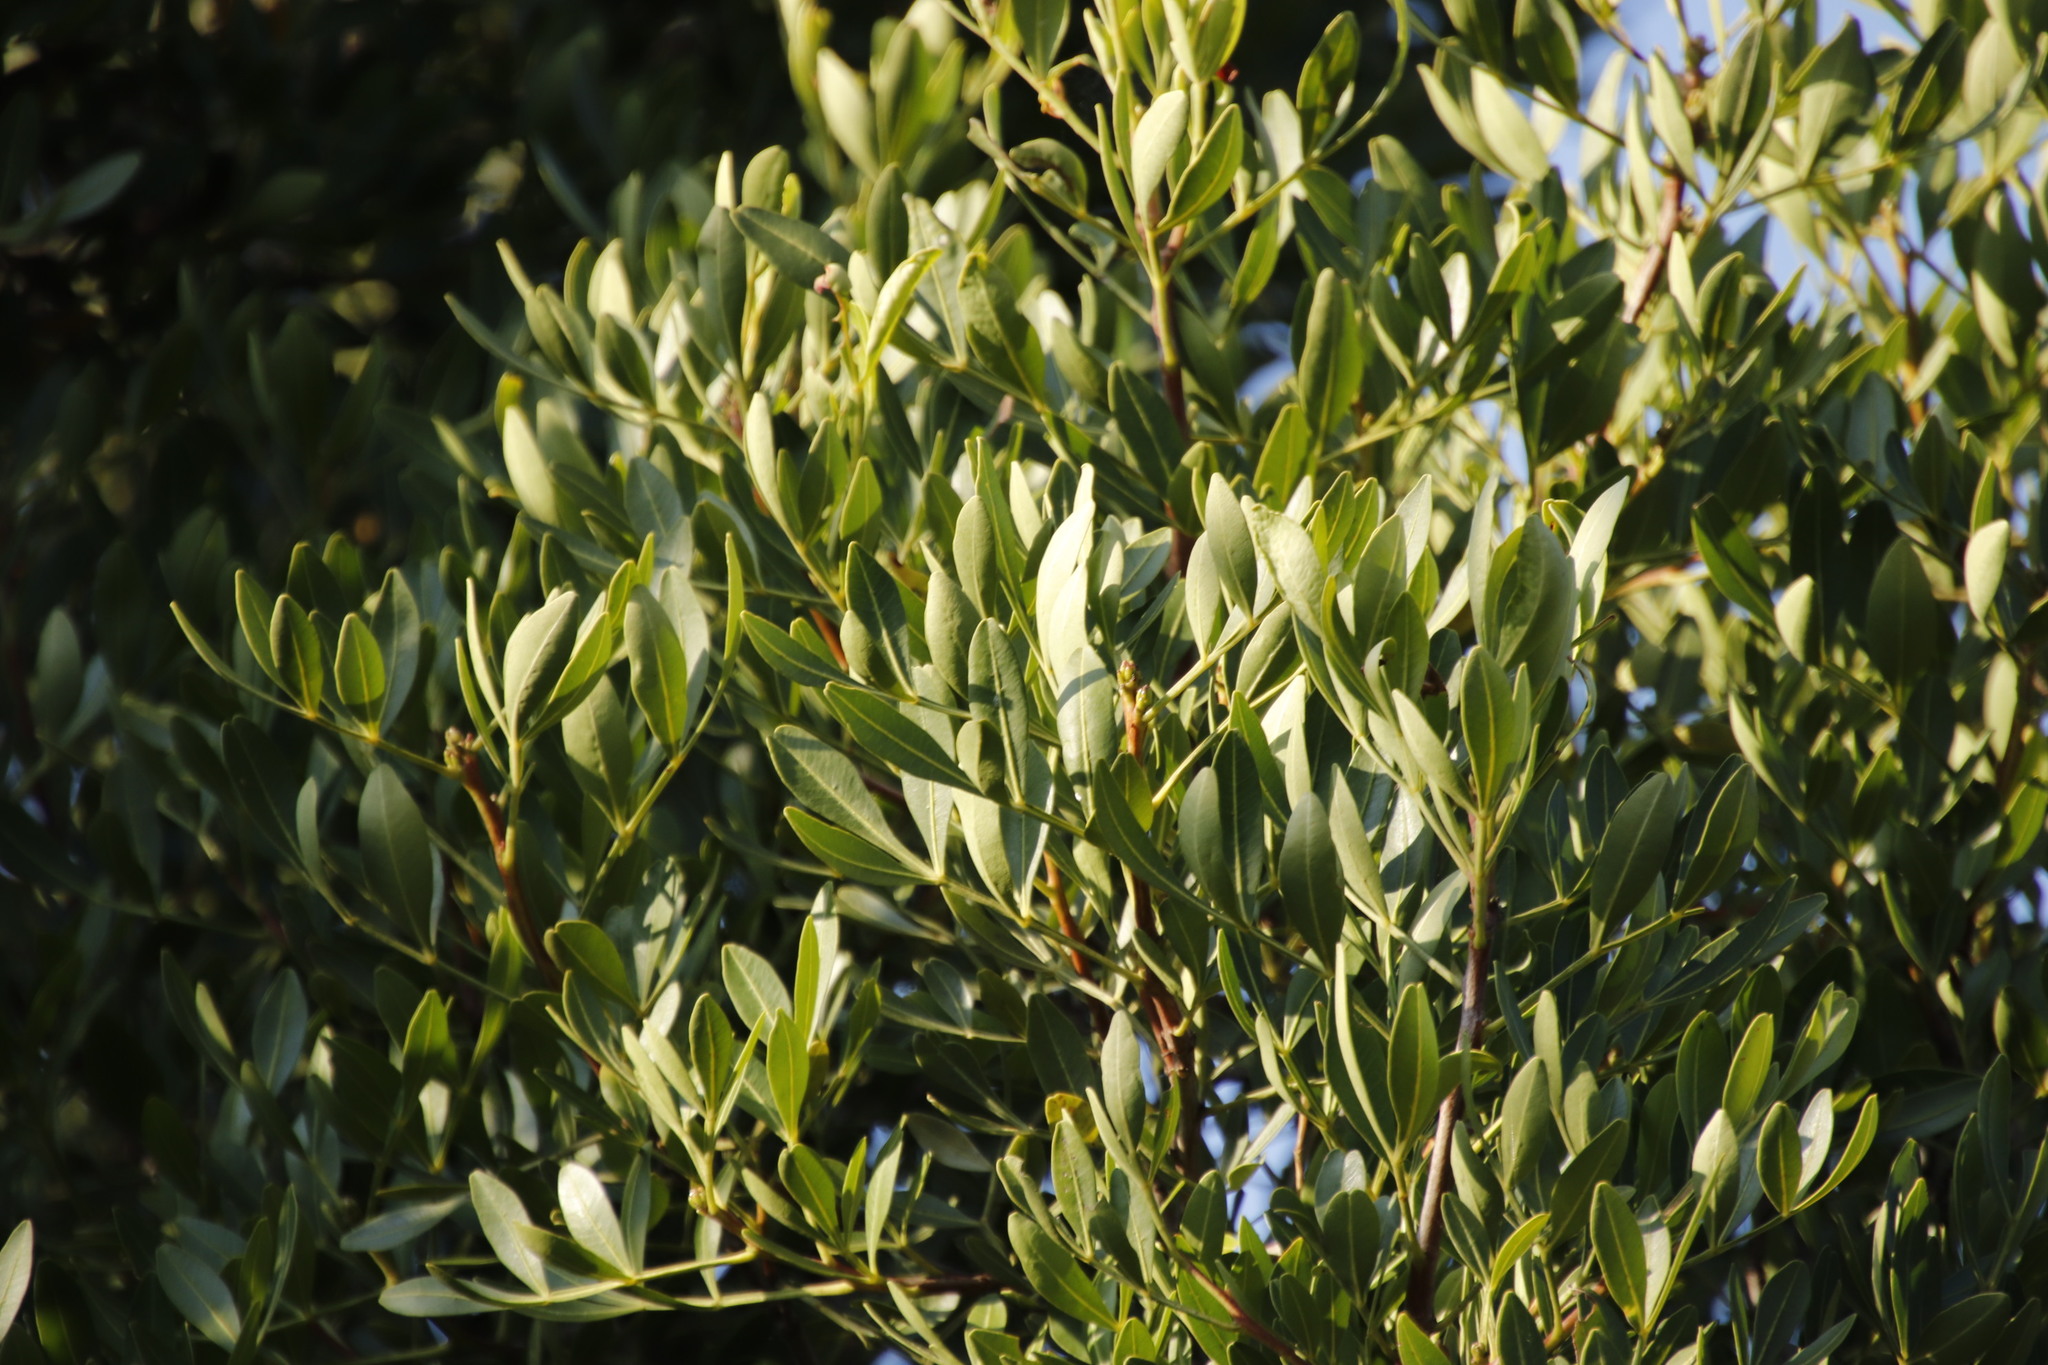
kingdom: Plantae
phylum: Tracheophyta
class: Magnoliopsida
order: Sapindales
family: Meliaceae
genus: Ekebergia
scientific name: Ekebergia pterophylla
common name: Cape ash
